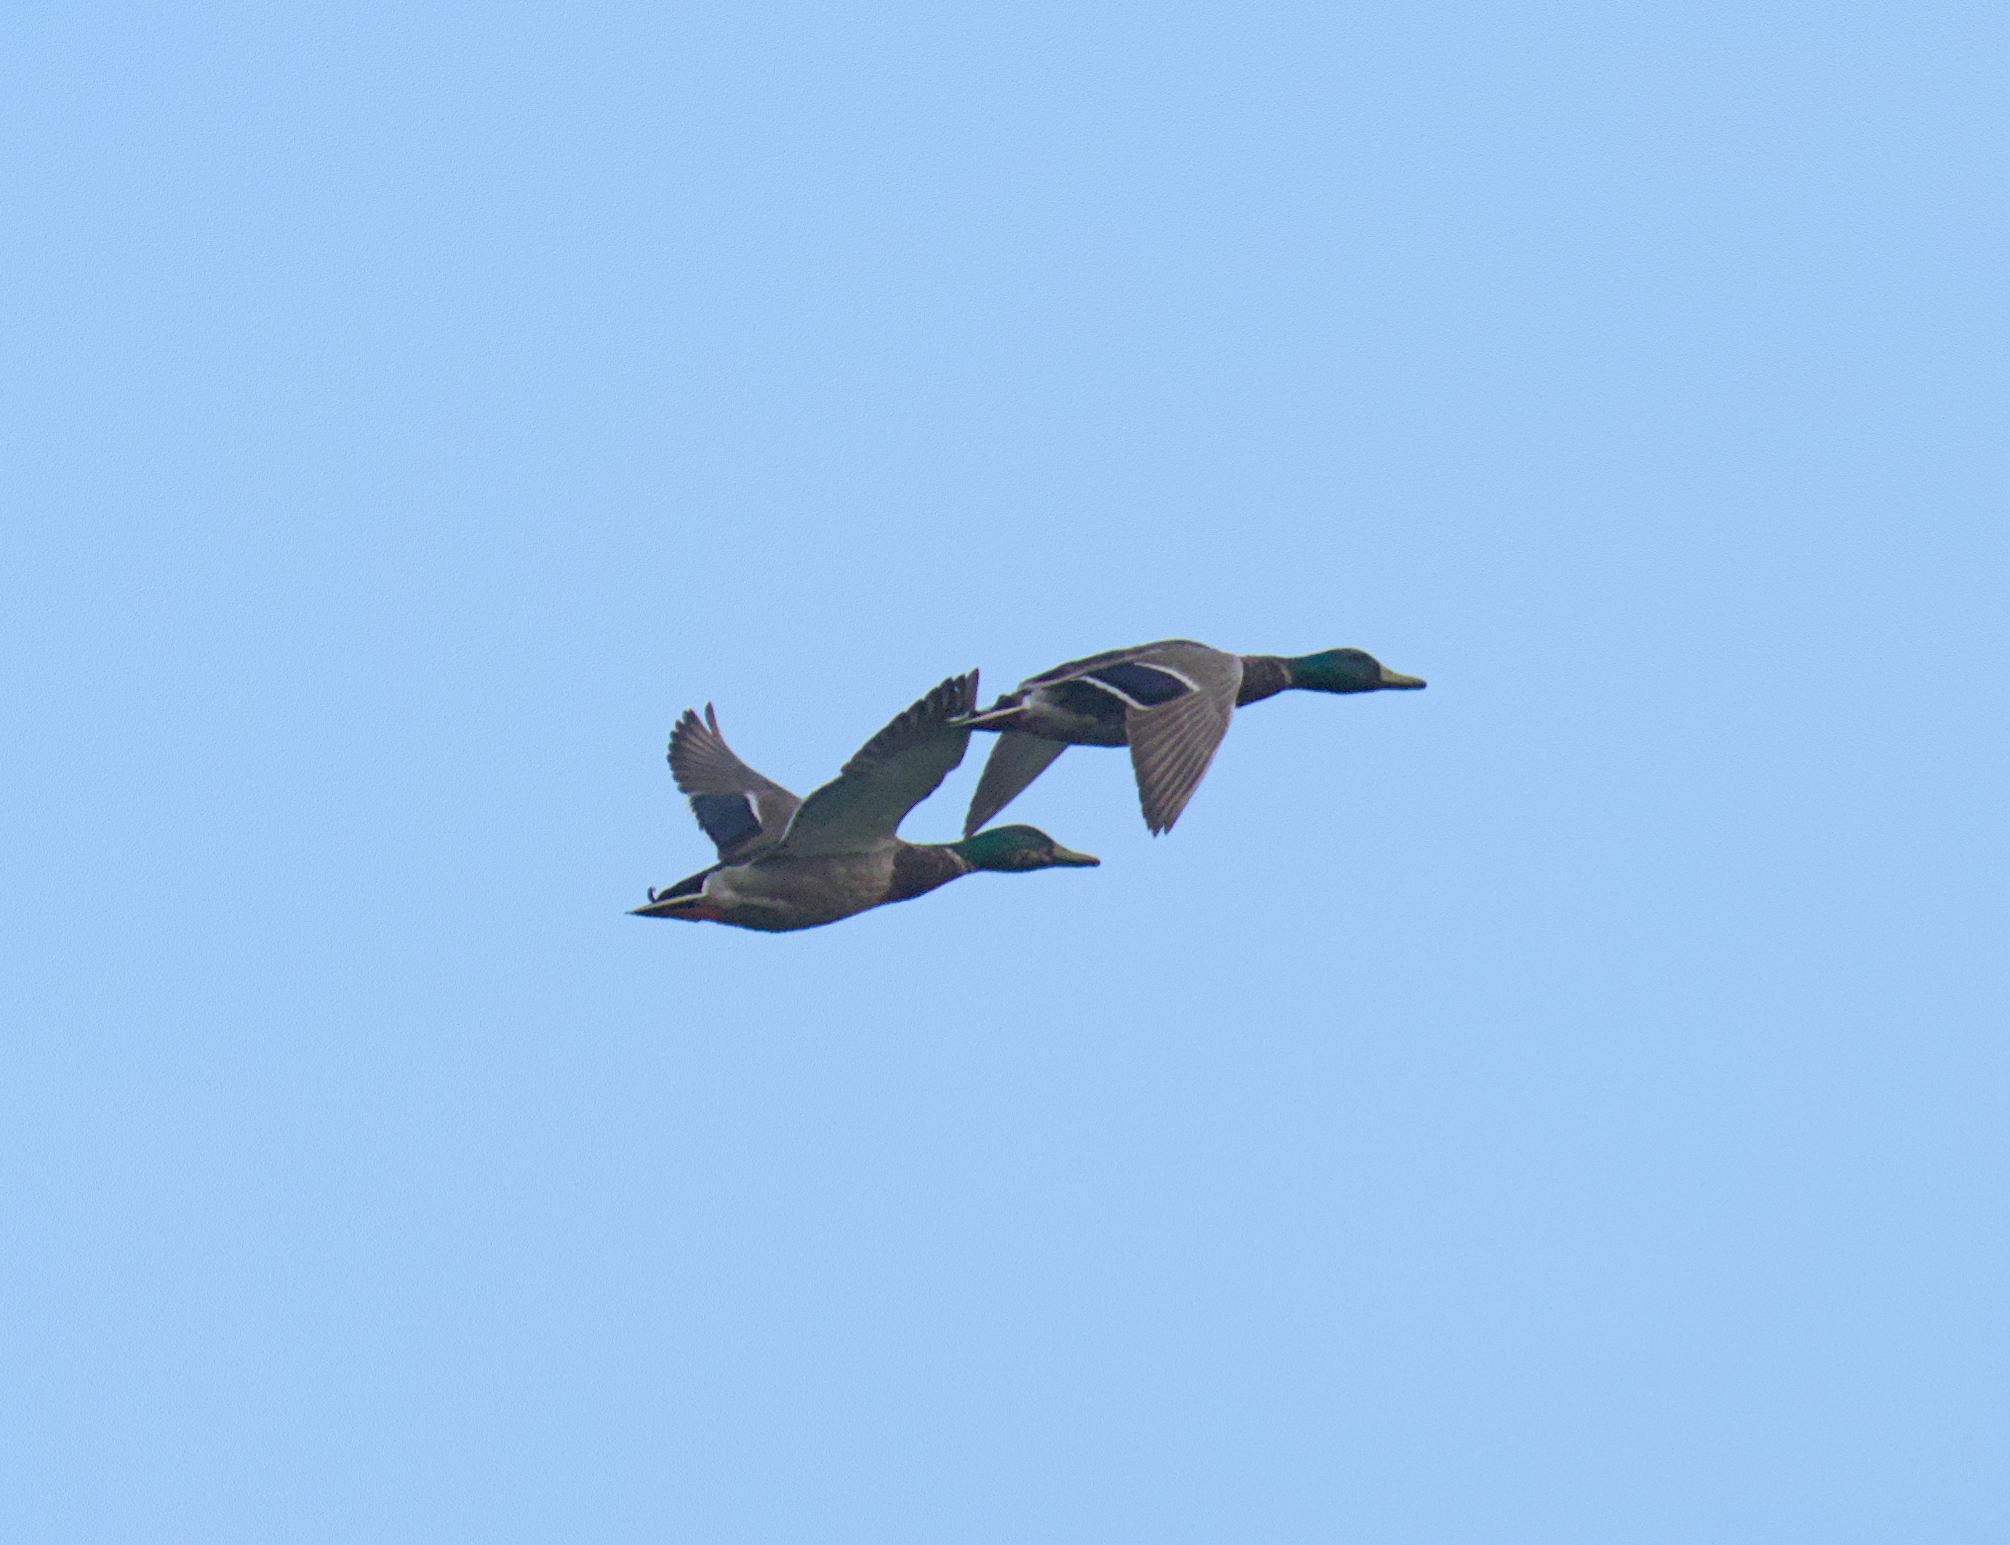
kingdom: Animalia
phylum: Chordata
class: Aves
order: Anseriformes
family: Anatidae
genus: Anas
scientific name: Anas platyrhynchos
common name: Mallard
